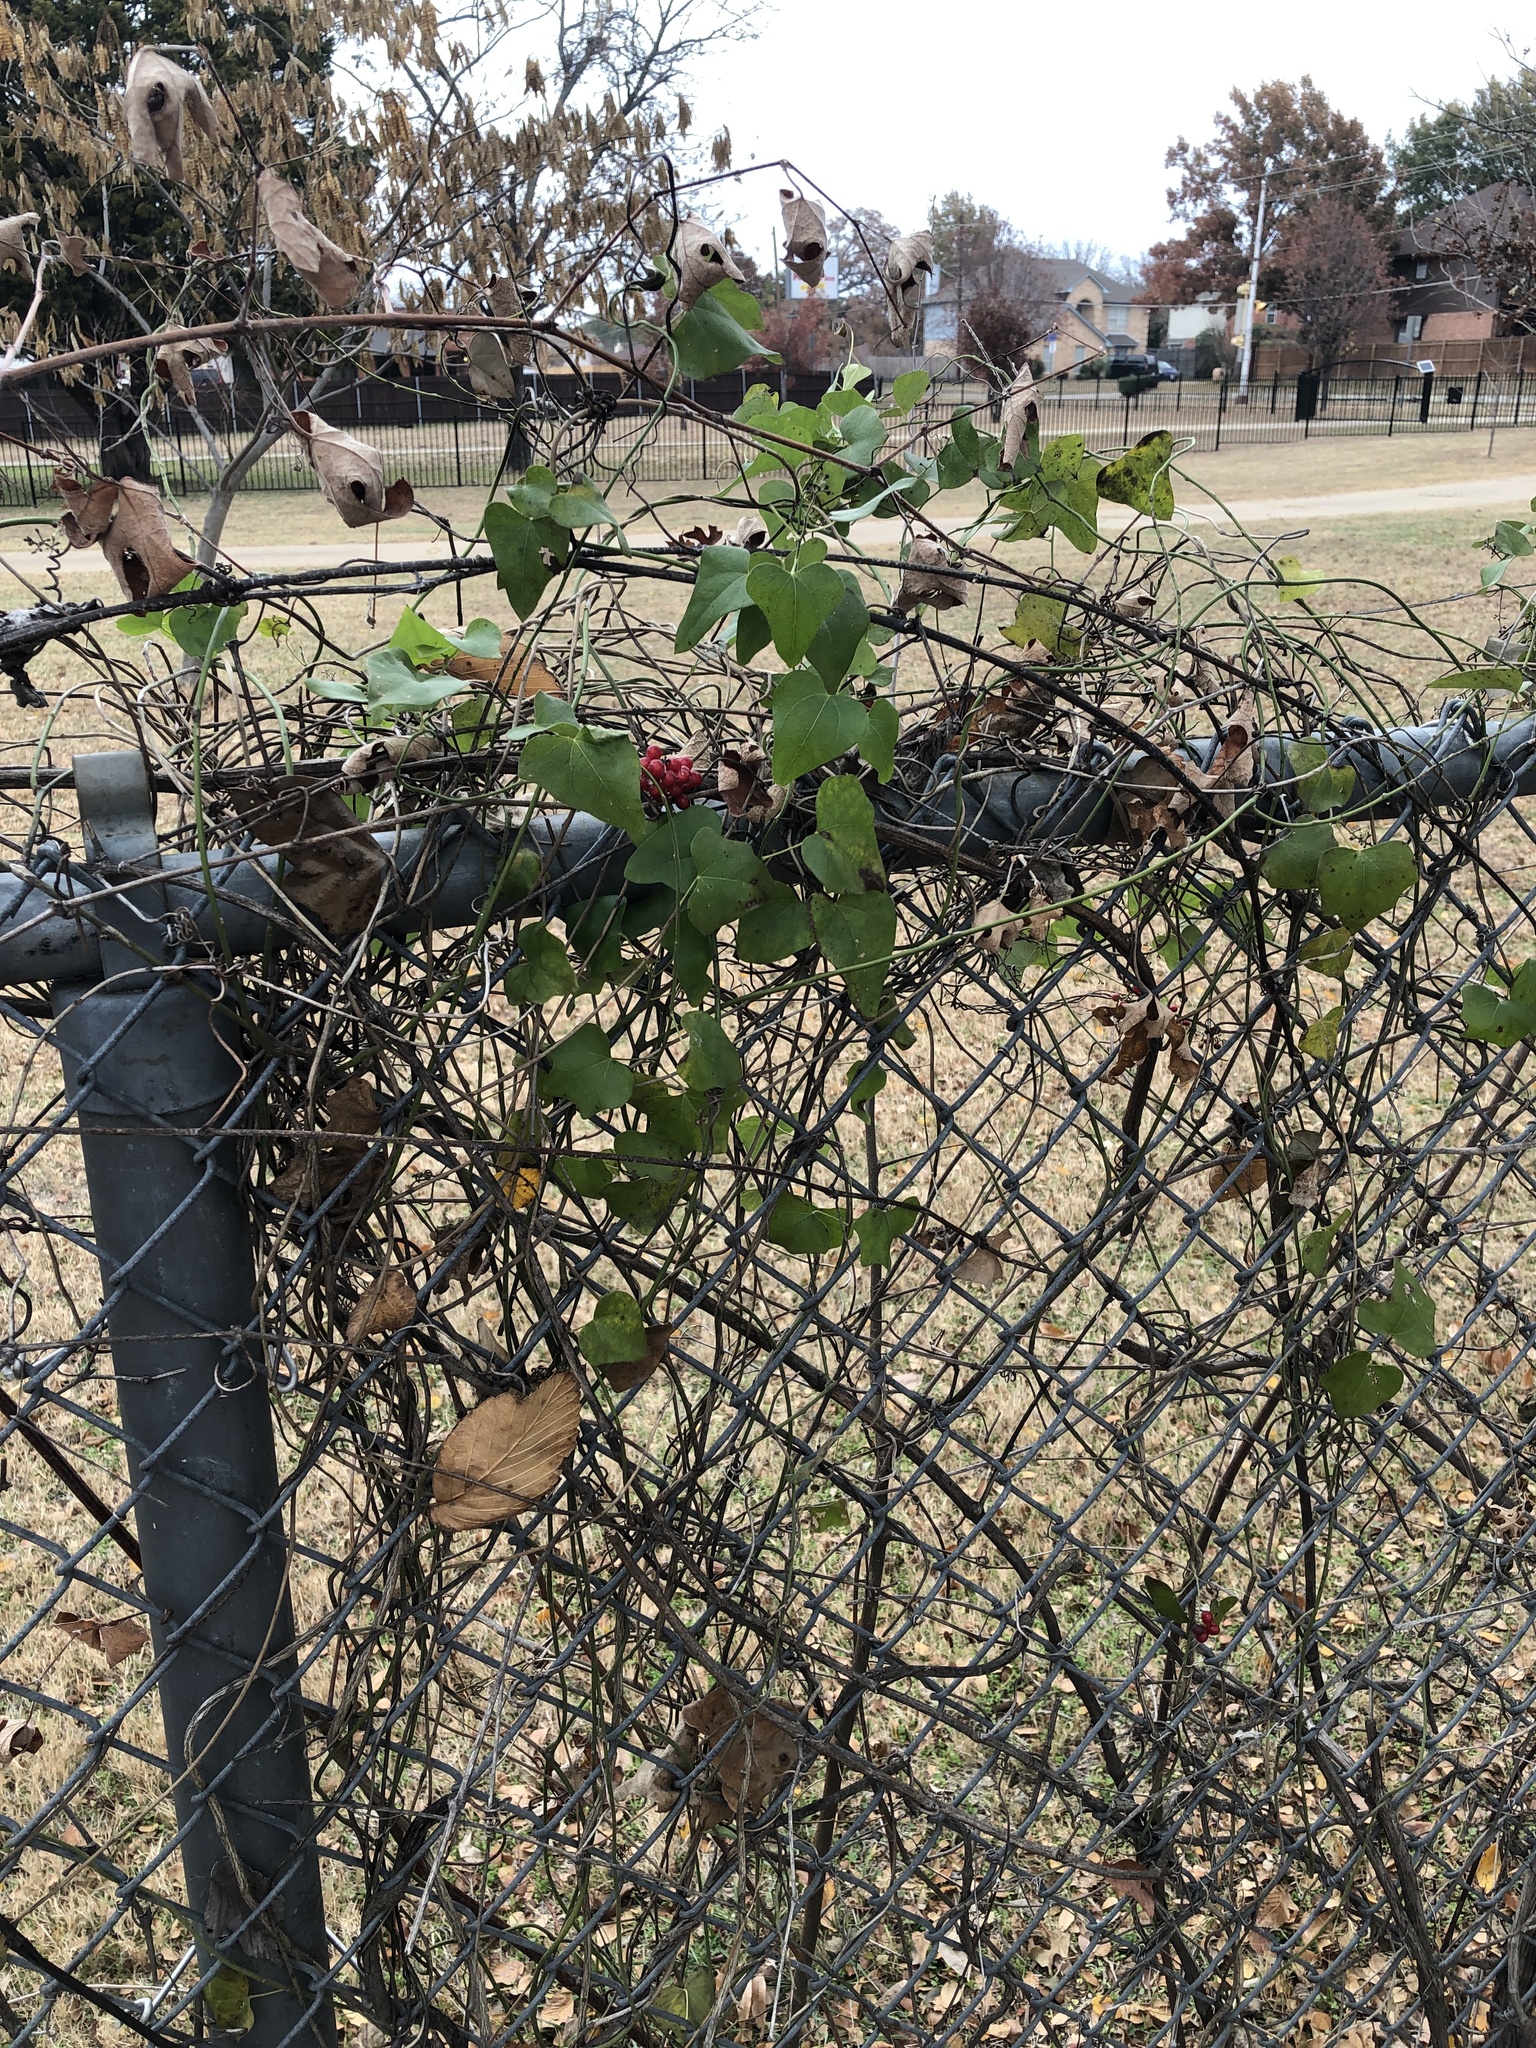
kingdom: Plantae
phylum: Tracheophyta
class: Magnoliopsida
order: Ranunculales
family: Menispermaceae
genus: Cocculus
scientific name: Cocculus carolinus
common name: Carolina moonseed
